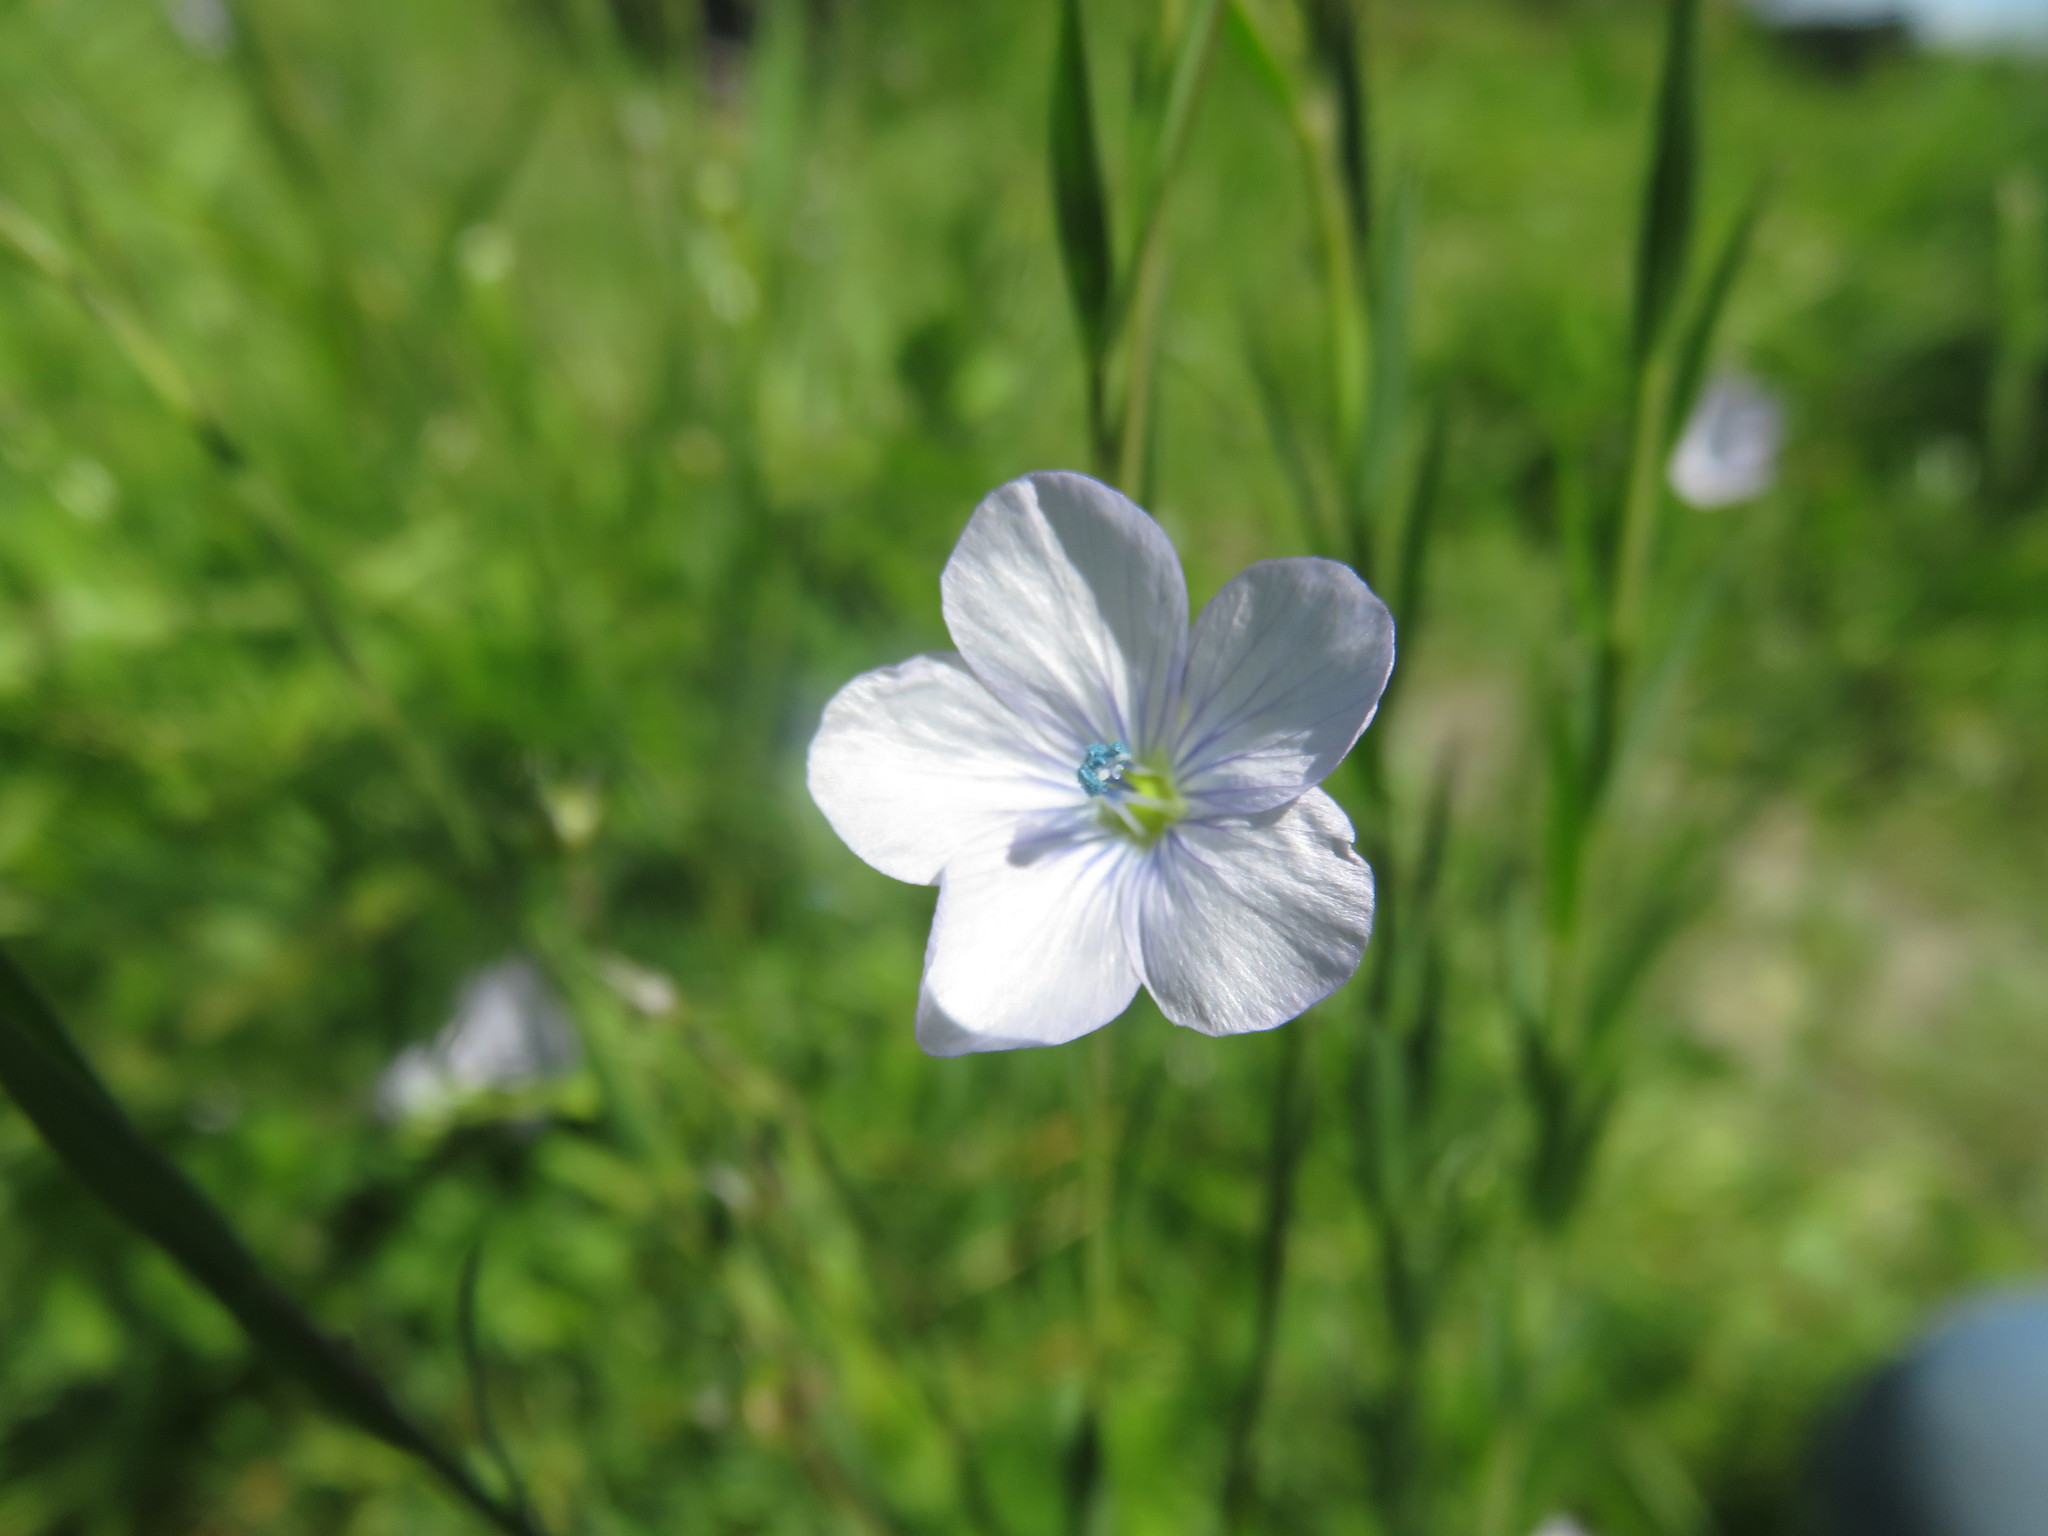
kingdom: Plantae
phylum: Tracheophyta
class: Magnoliopsida
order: Malpighiales
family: Linaceae
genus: Linum
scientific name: Linum bienne
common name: Pale flax
